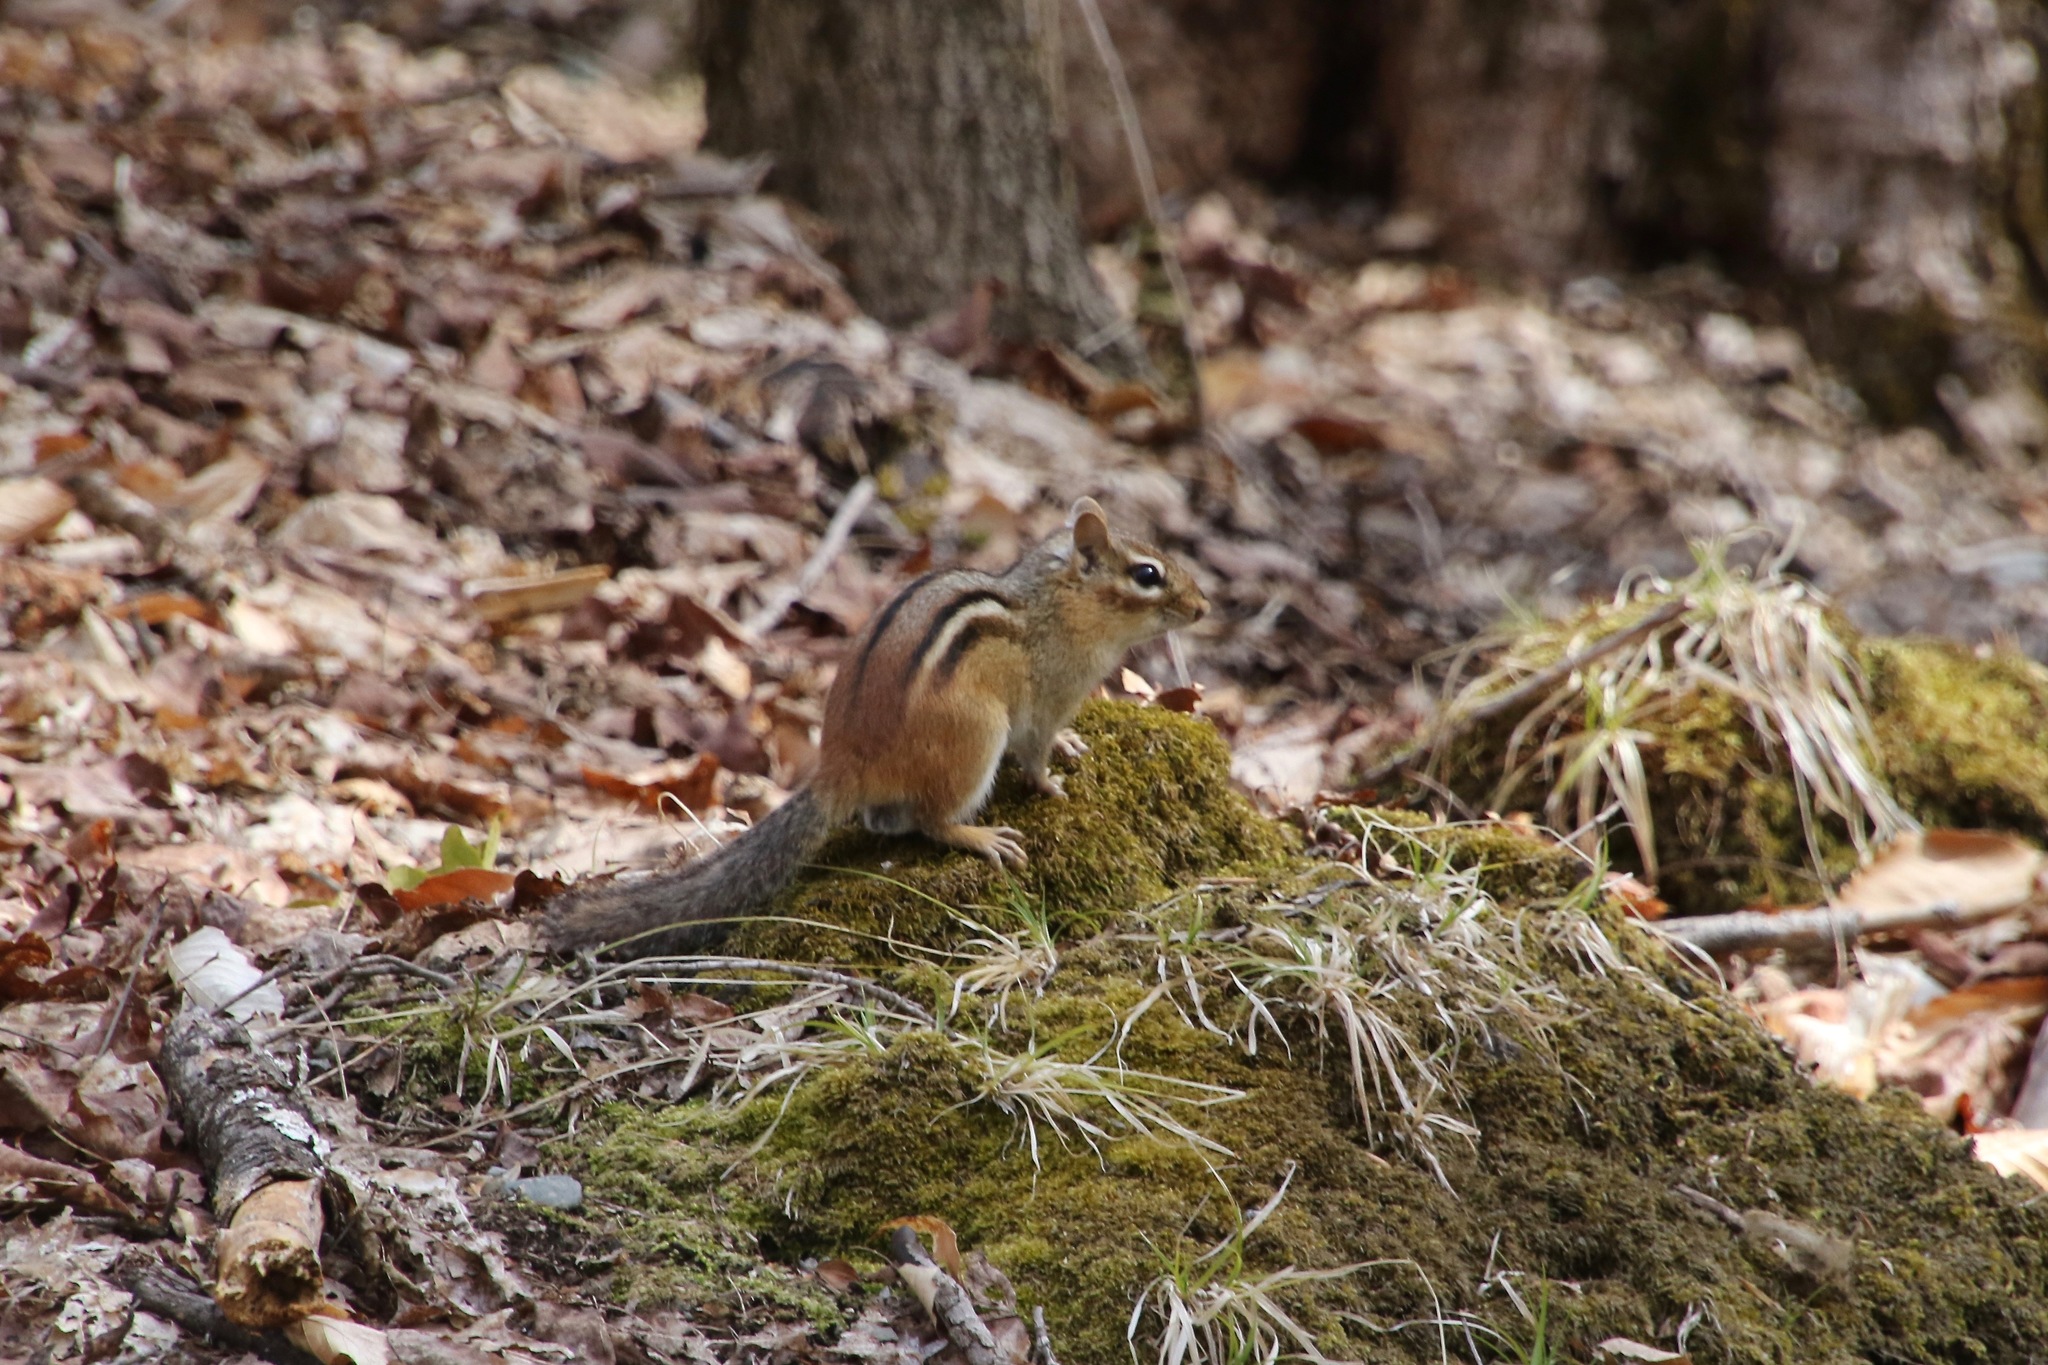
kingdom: Animalia
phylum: Chordata
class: Mammalia
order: Rodentia
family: Sciuridae
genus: Tamias
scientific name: Tamias striatus
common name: Eastern chipmunk
